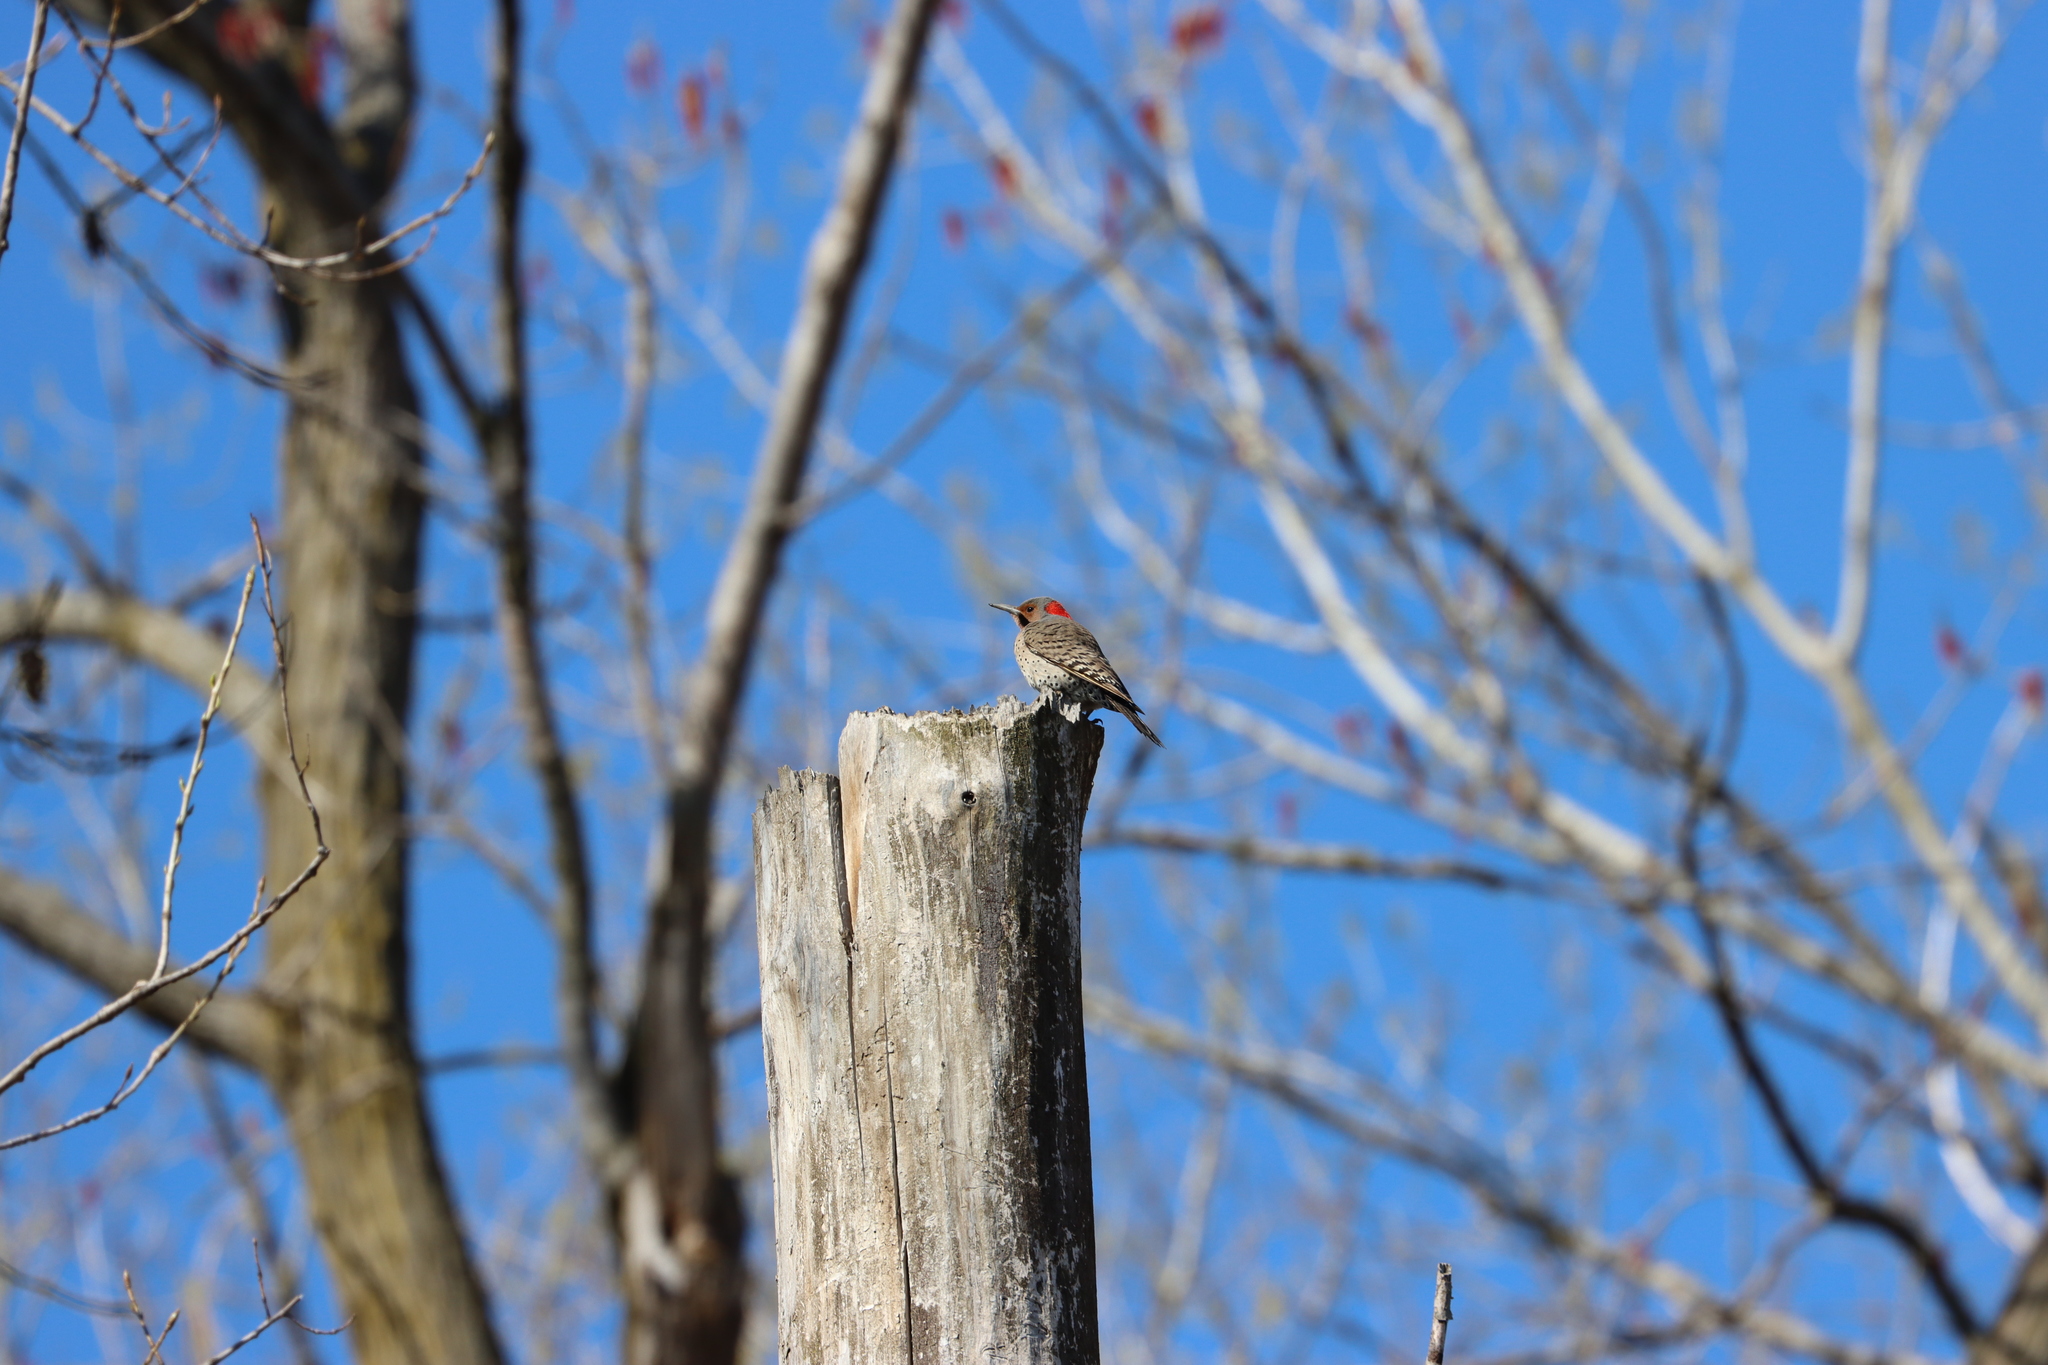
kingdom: Animalia
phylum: Chordata
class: Aves
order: Piciformes
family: Picidae
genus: Colaptes
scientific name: Colaptes auratus
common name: Northern flicker
